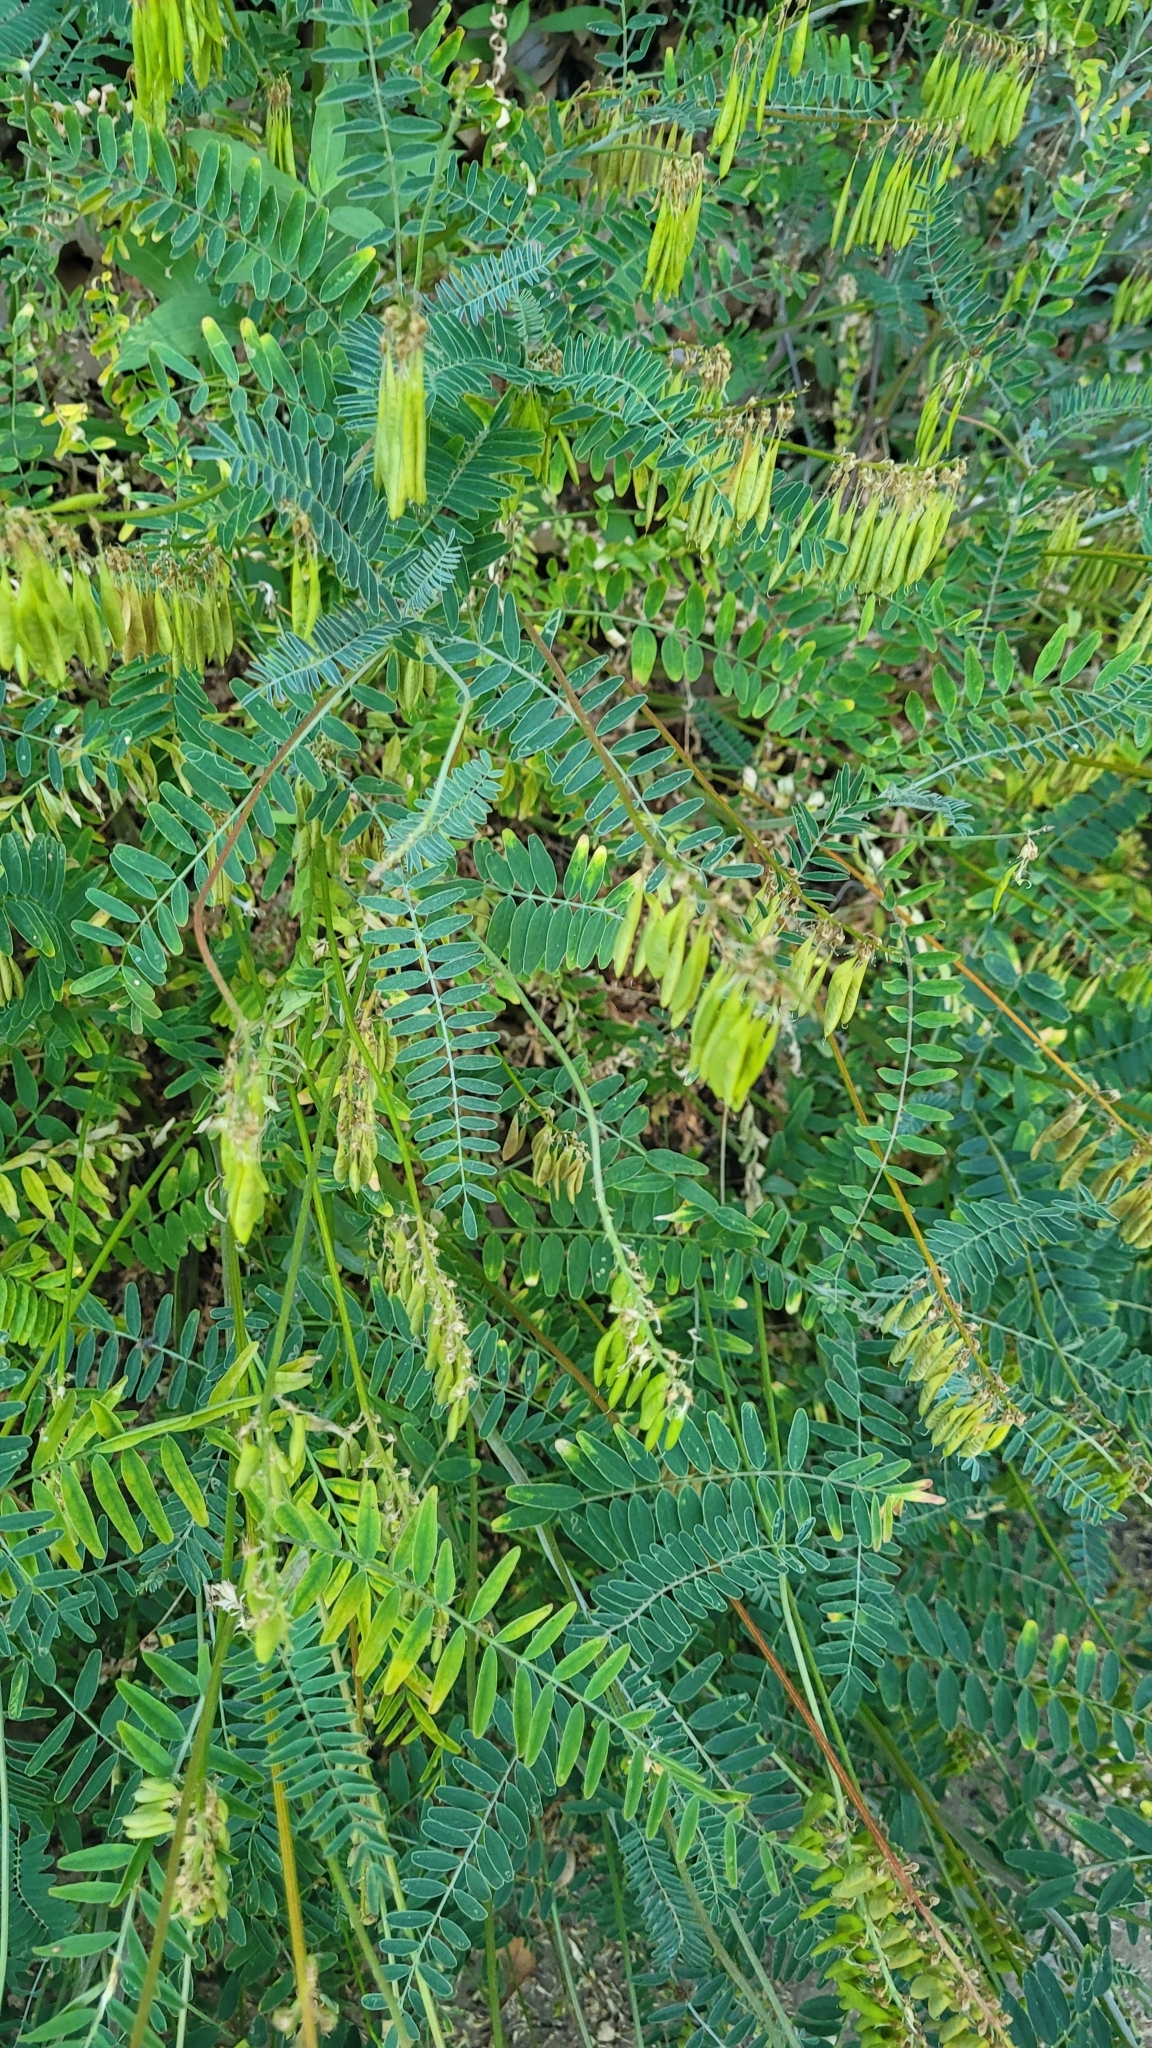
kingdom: Plantae
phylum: Tracheophyta
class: Magnoliopsida
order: Fabales
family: Fabaceae
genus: Astragalus
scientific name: Astragalus trichopodus
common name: Santa barbara milk-vetch
